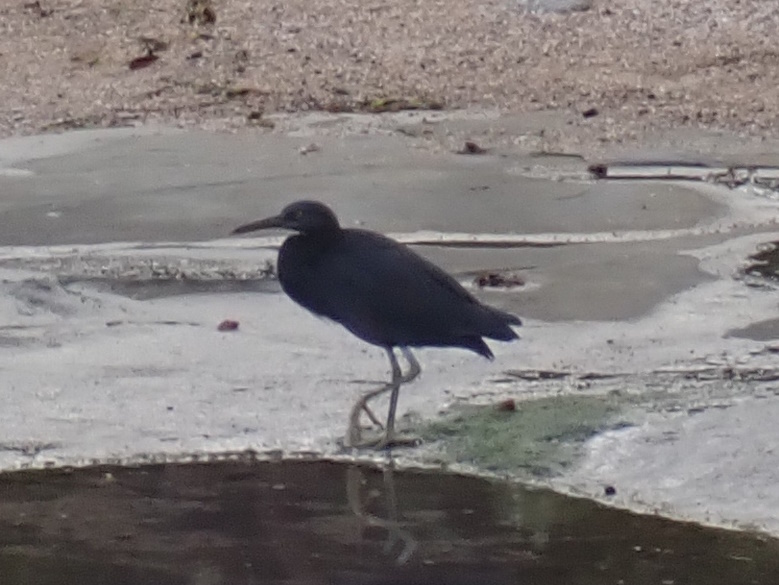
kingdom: Animalia
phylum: Chordata
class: Aves
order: Pelecaniformes
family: Ardeidae
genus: Egretta
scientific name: Egretta sacra
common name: Pacific reef heron
